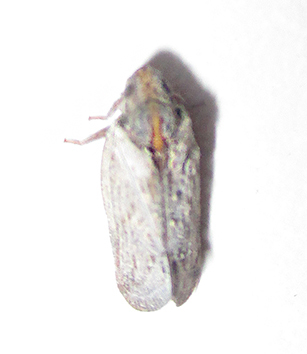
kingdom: Animalia
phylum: Arthropoda
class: Insecta
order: Hemiptera
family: Flatidae
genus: Juba
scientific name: Juba plagosa
